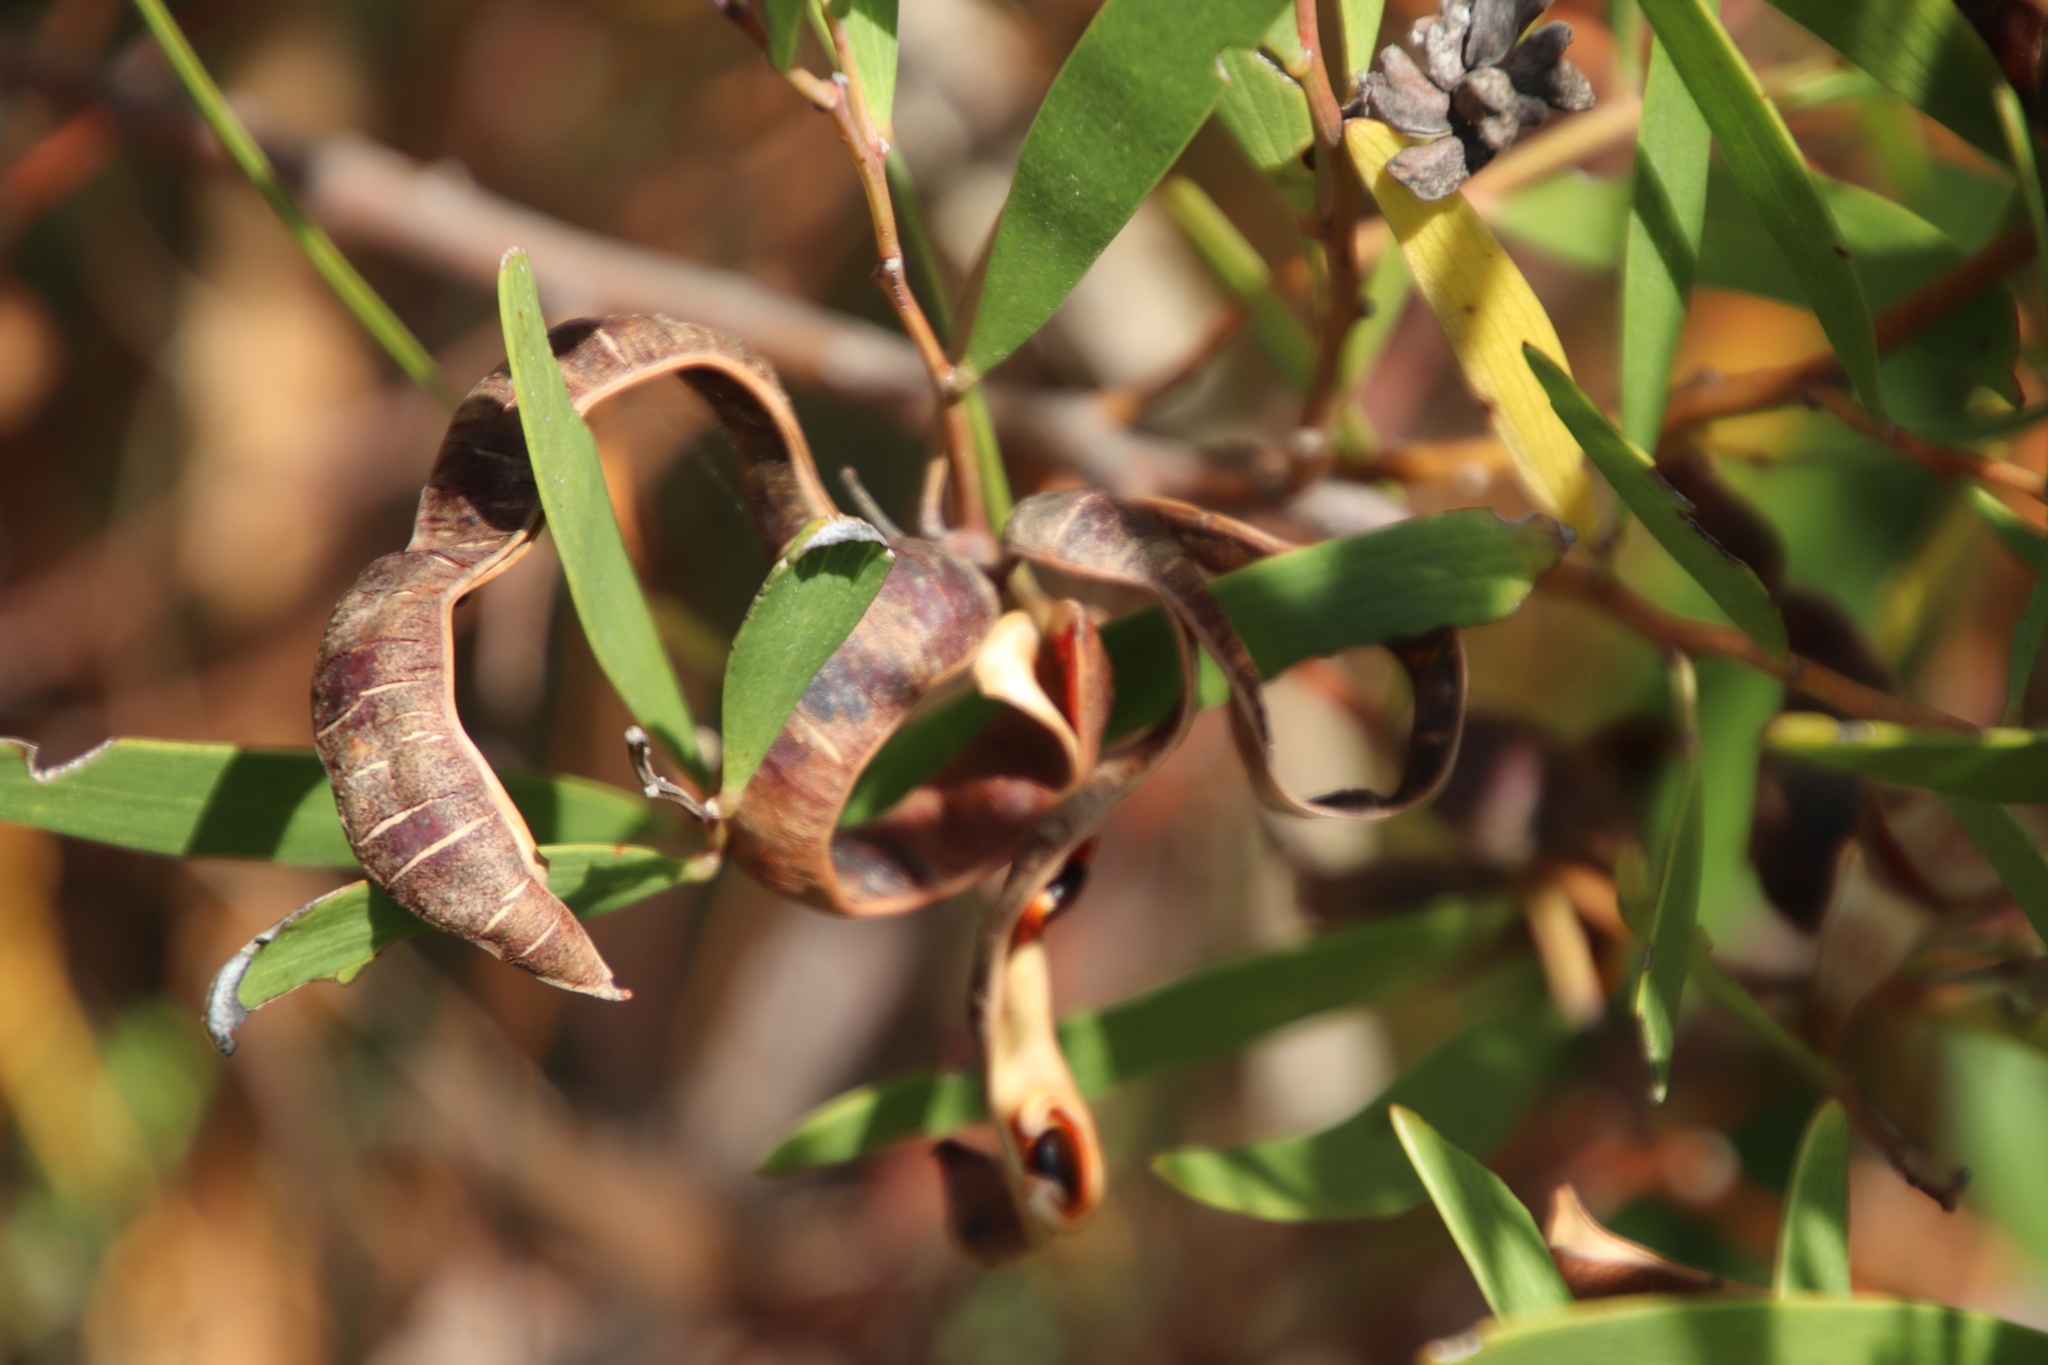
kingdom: Plantae
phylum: Tracheophyta
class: Magnoliopsida
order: Fabales
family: Fabaceae
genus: Acacia
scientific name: Acacia cyclops
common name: Coastal wattle
